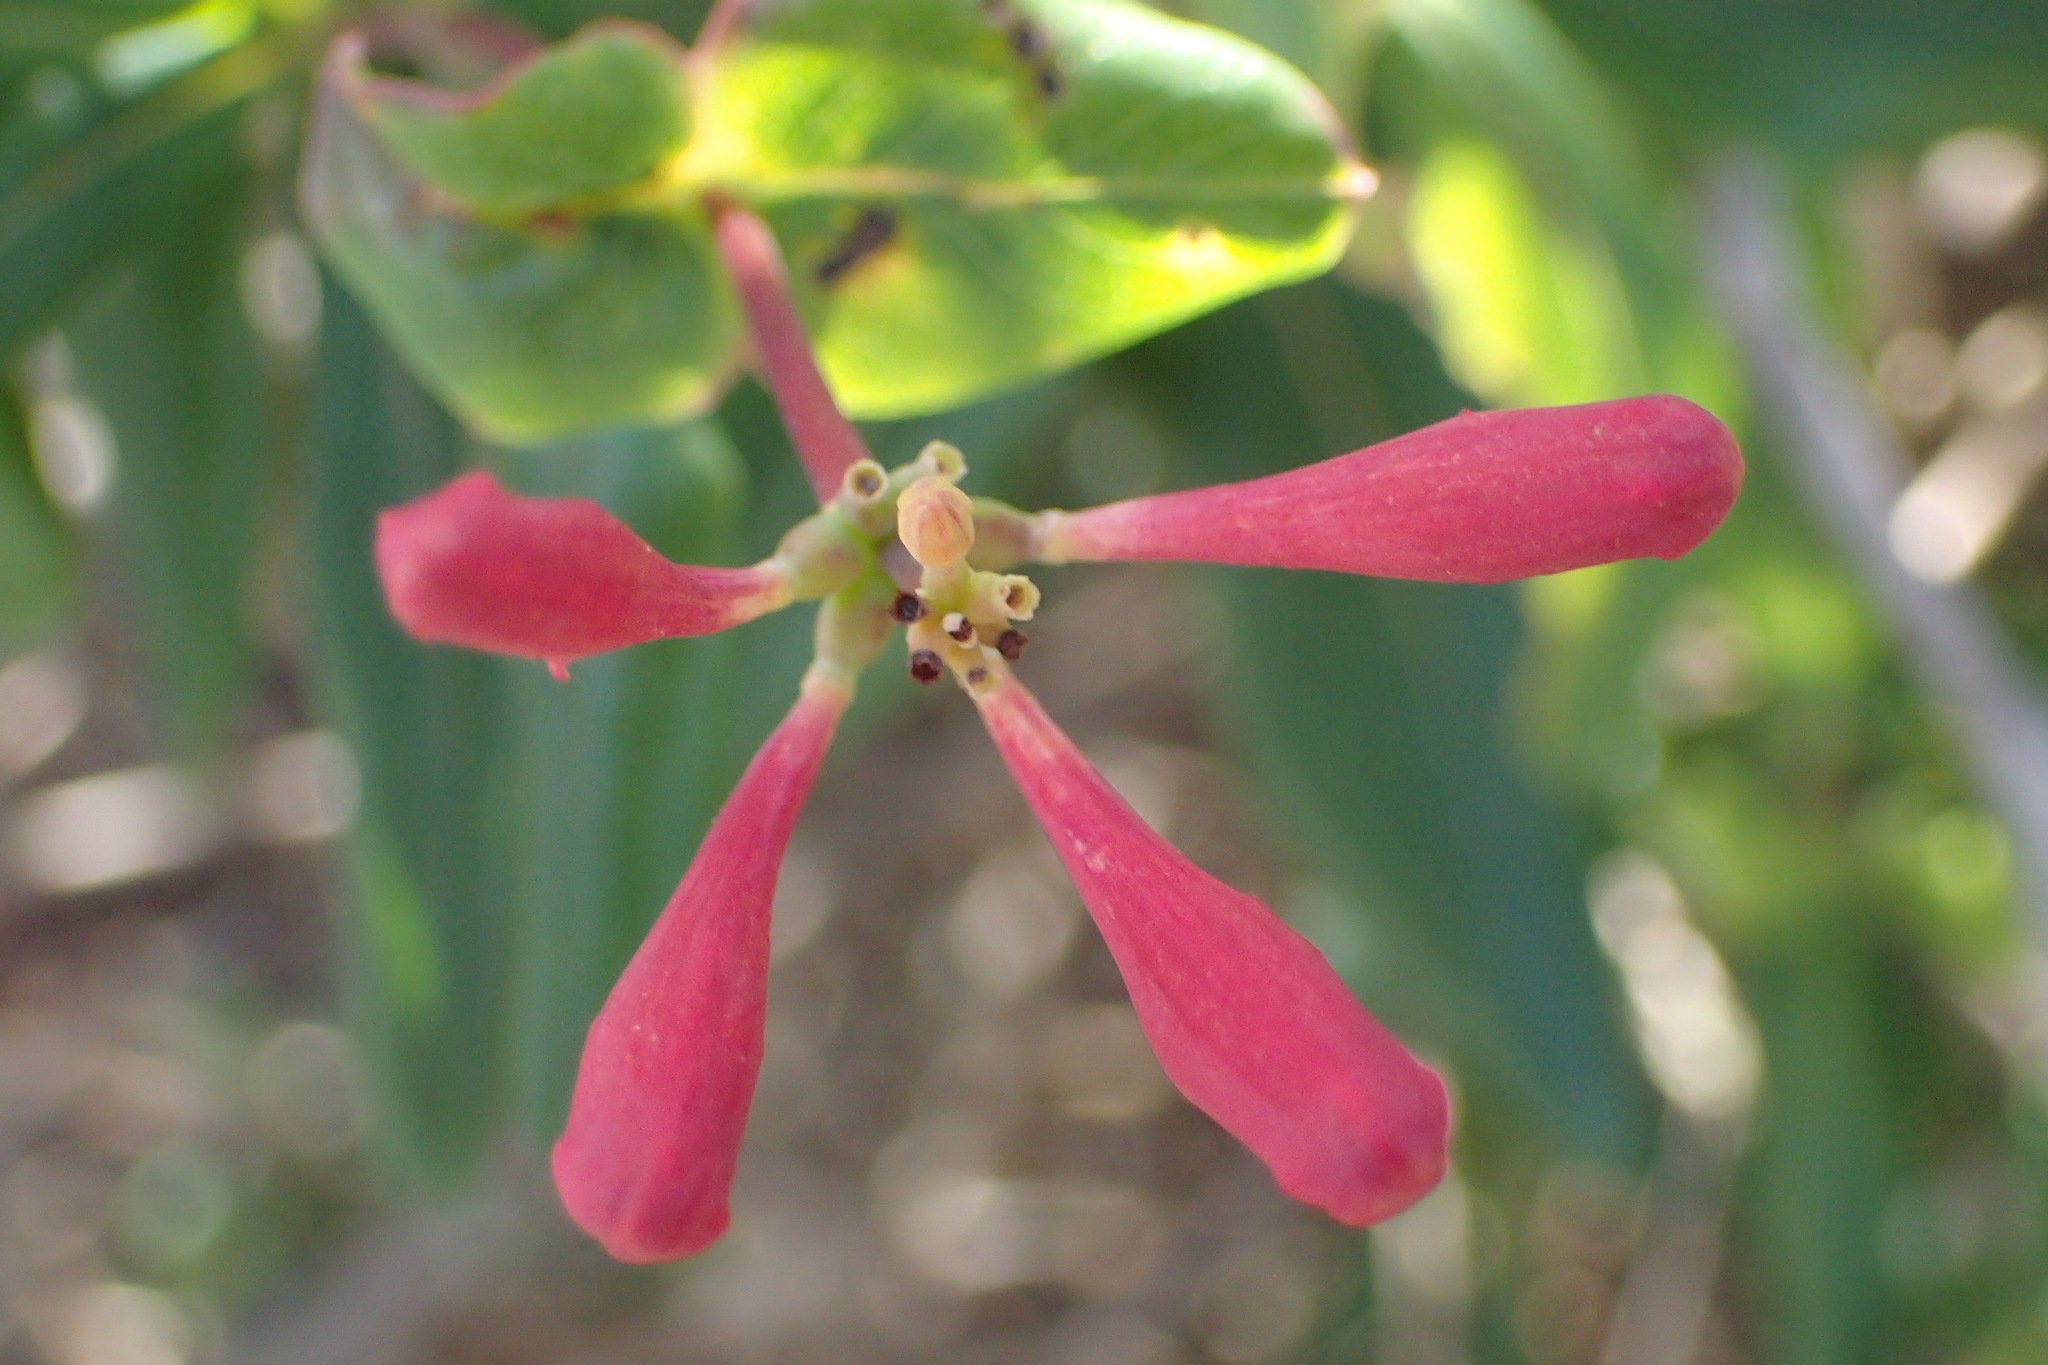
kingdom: Plantae
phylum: Tracheophyta
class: Magnoliopsida
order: Dipsacales
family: Caprifoliaceae
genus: Lonicera
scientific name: Lonicera sempervirens
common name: Coral honeysuckle
